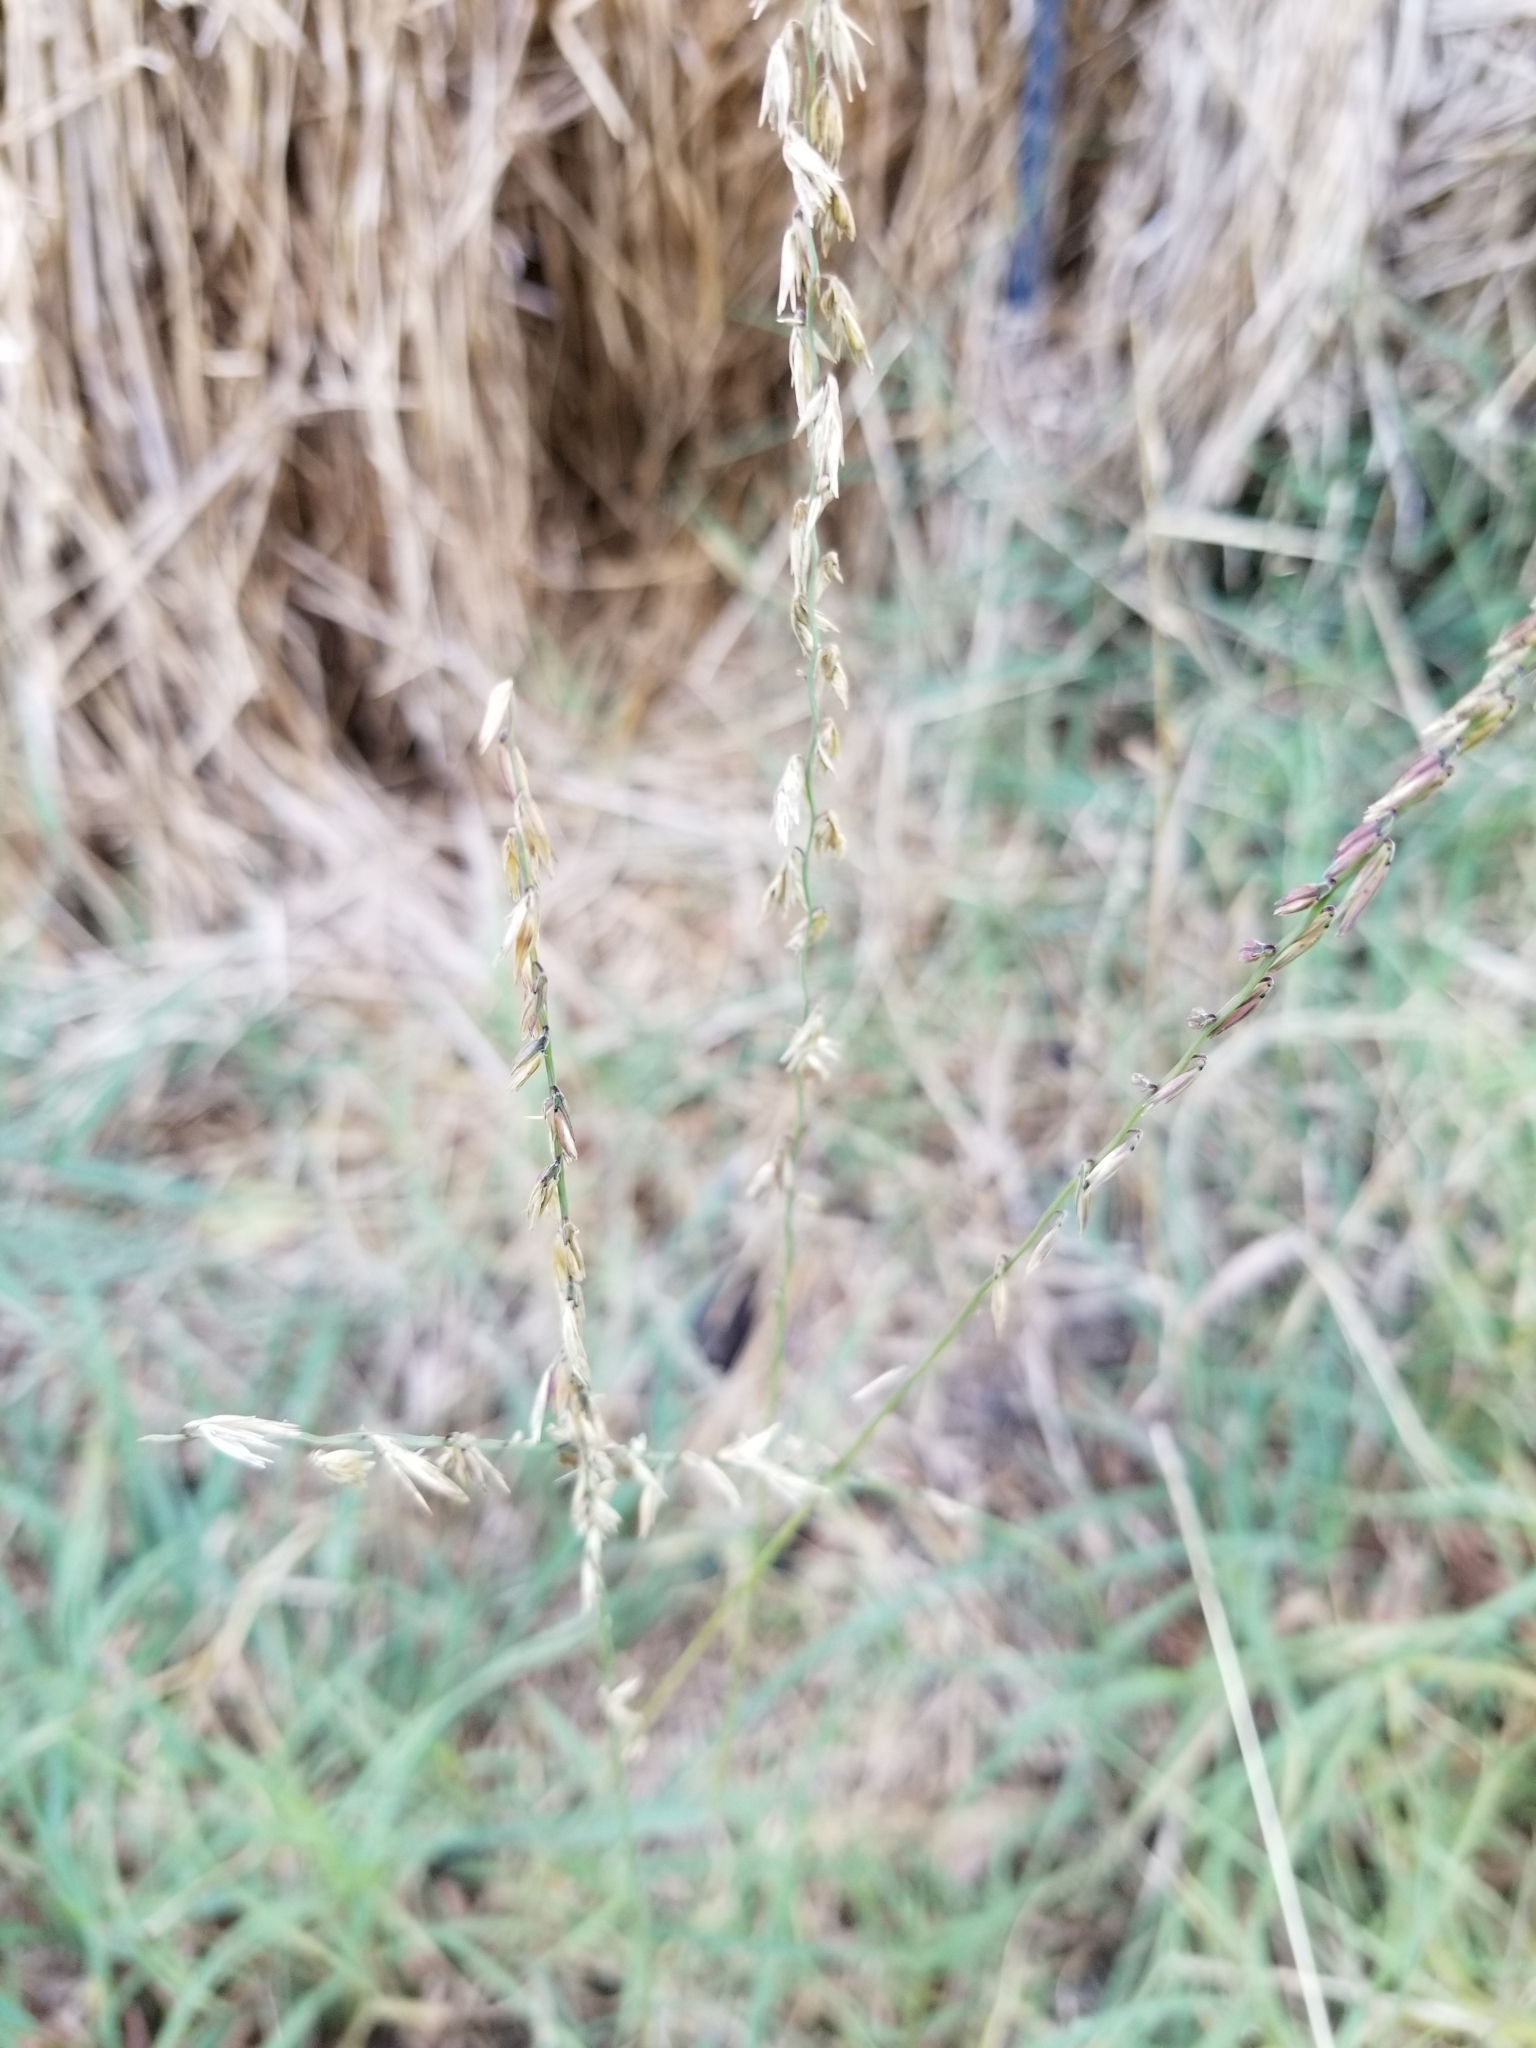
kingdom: Plantae
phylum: Tracheophyta
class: Liliopsida
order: Poales
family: Poaceae
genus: Bouteloua
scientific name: Bouteloua curtipendula
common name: Side-oats grama
